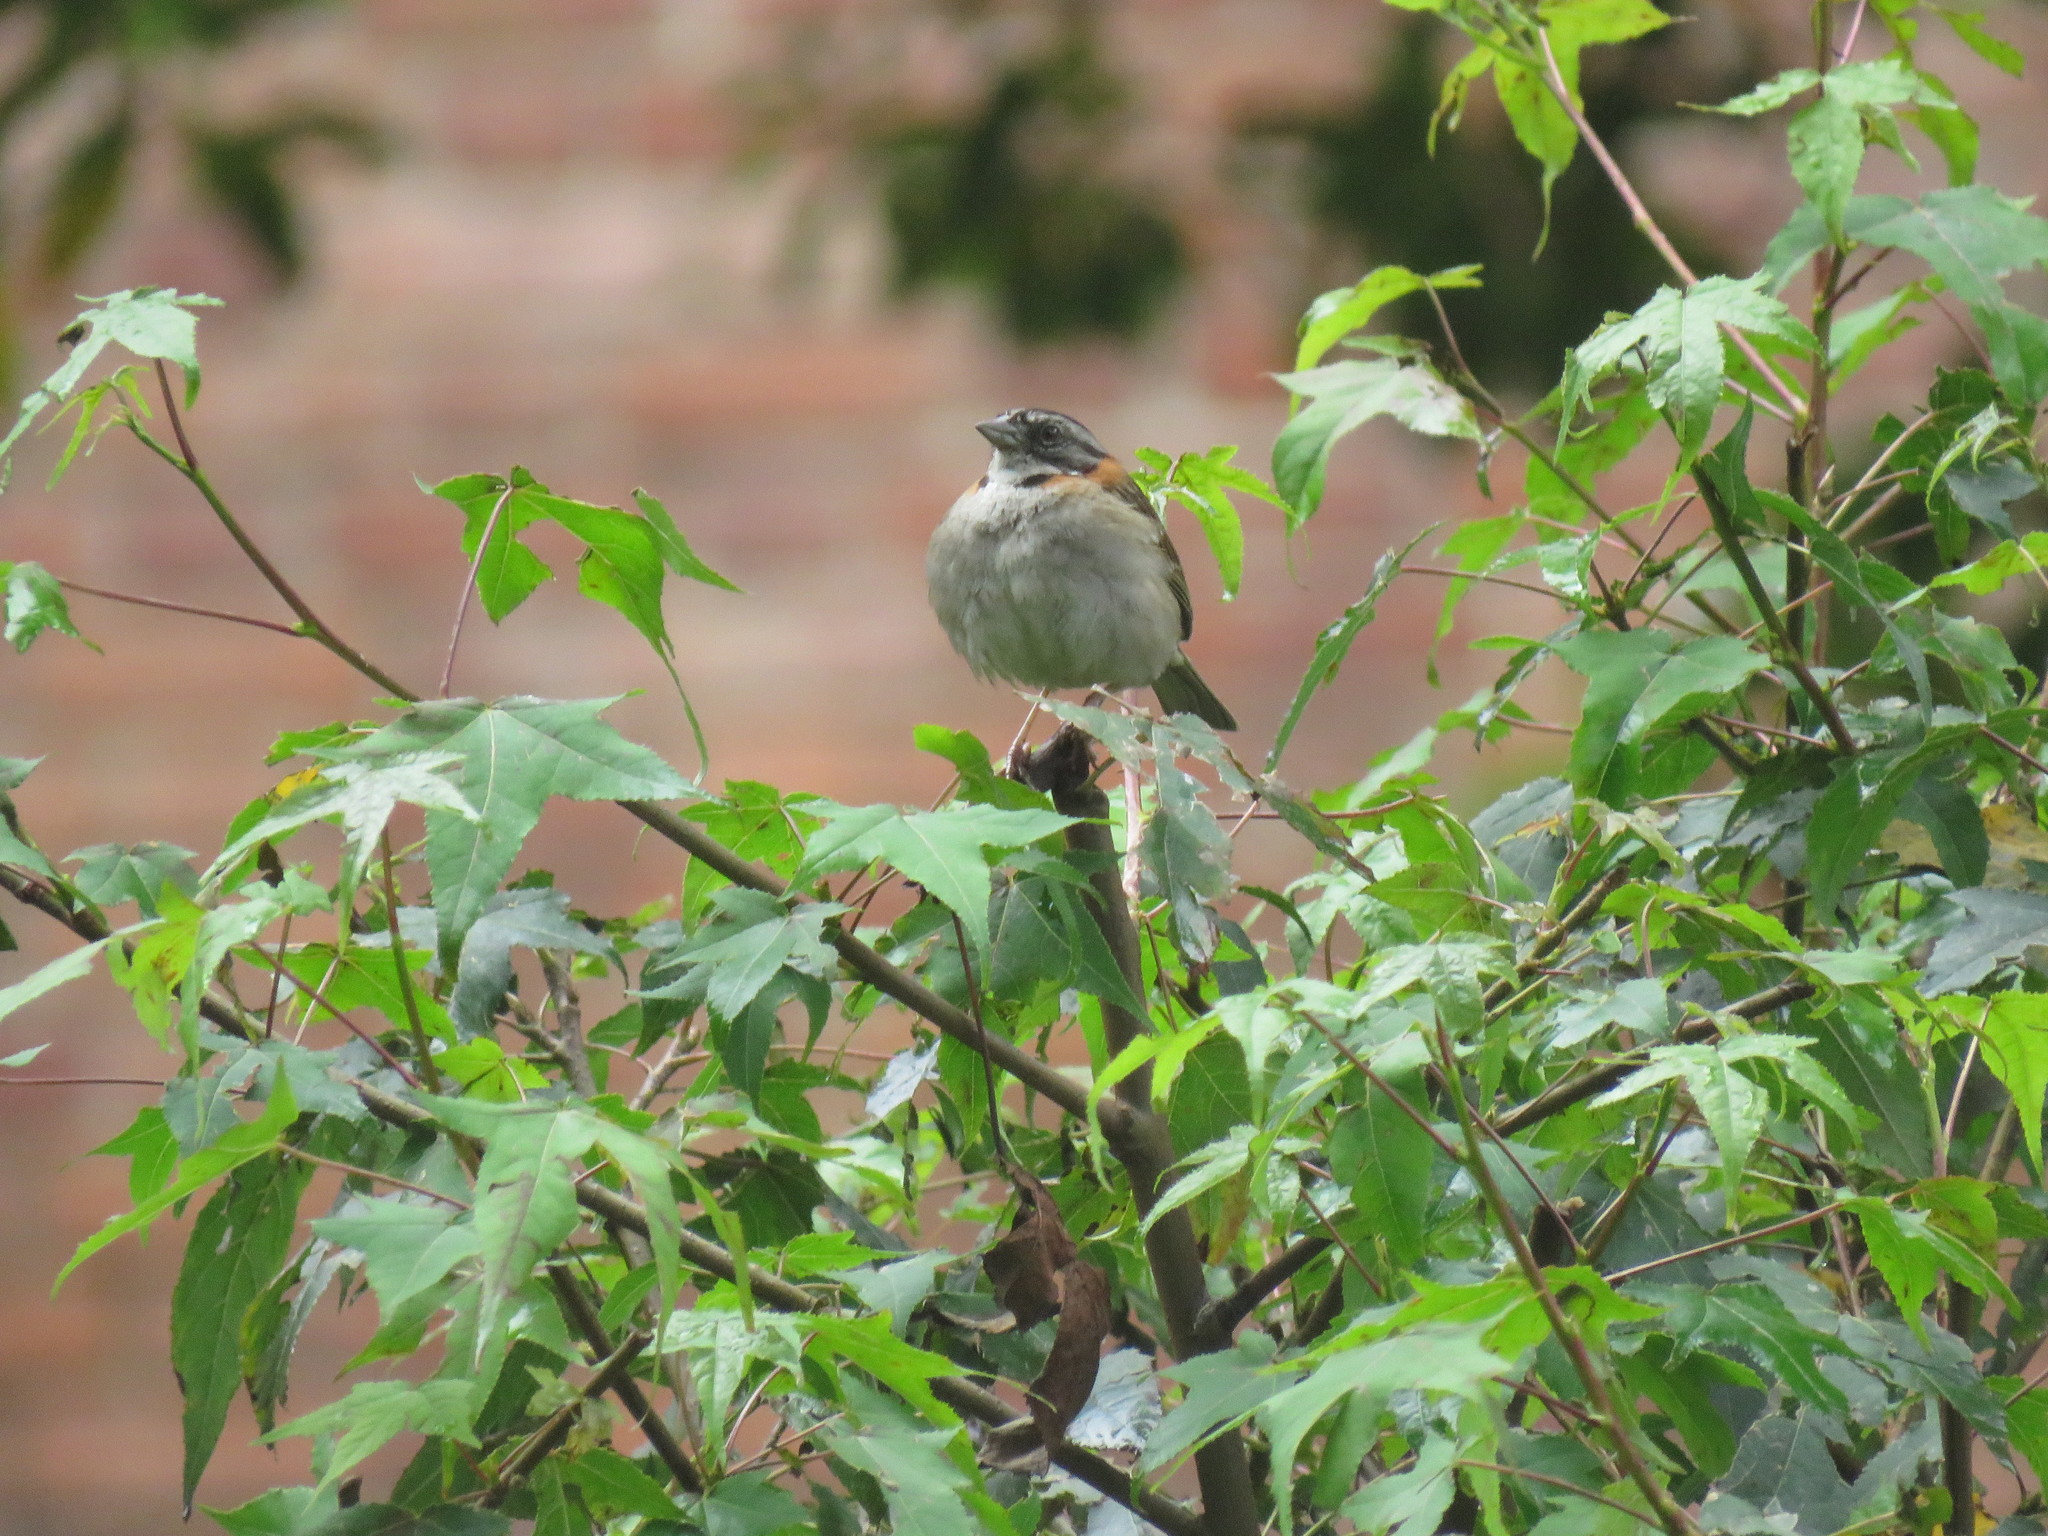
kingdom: Animalia
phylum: Chordata
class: Aves
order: Passeriformes
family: Passerellidae
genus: Zonotrichia
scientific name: Zonotrichia capensis
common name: Rufous-collared sparrow
